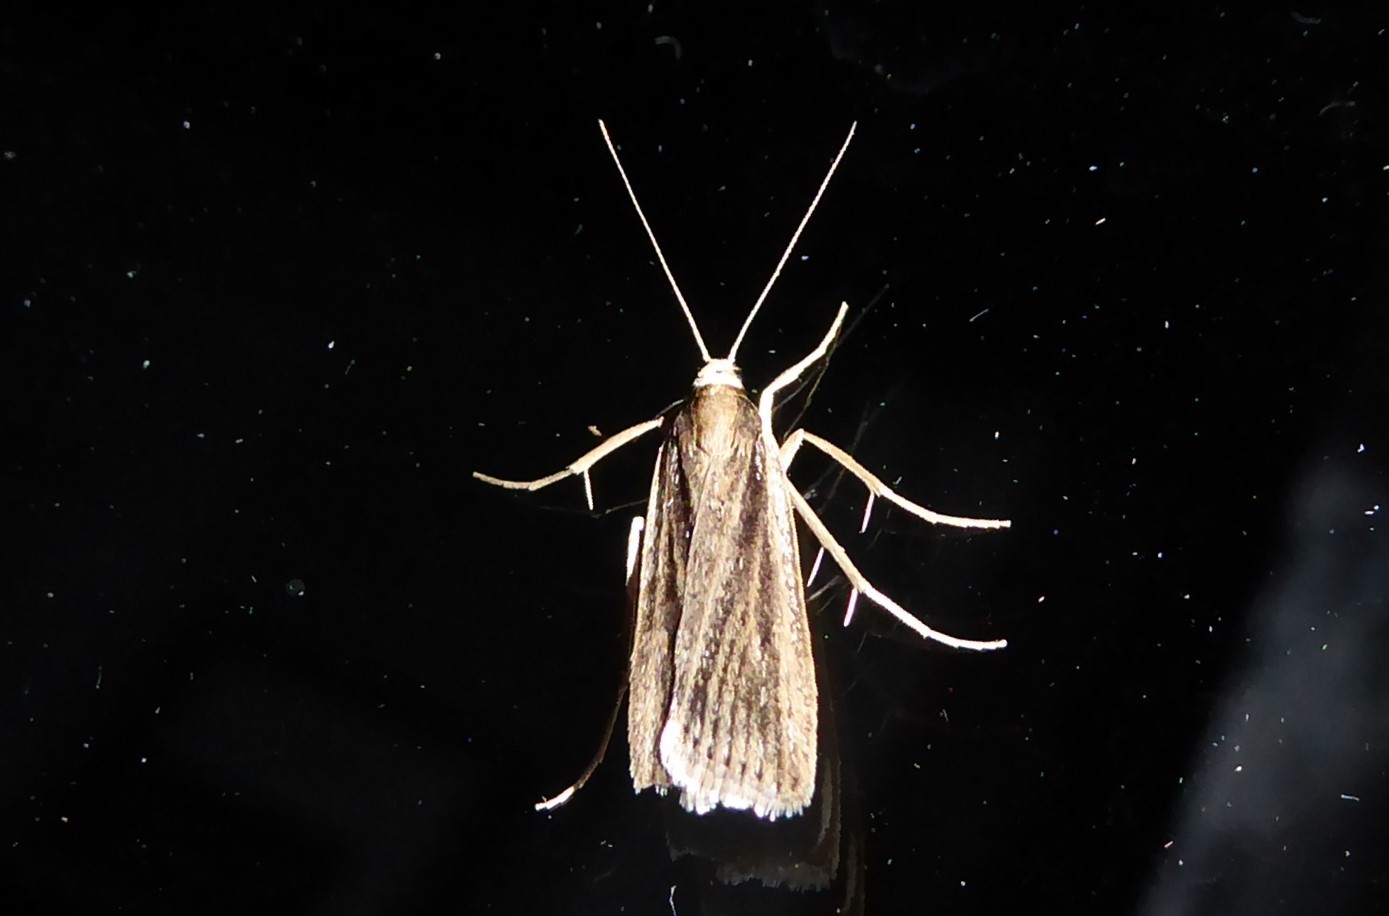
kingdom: Animalia
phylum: Arthropoda
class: Insecta
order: Lepidoptera
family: Crambidae
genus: Eudonia
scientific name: Eudonia sabulosella
